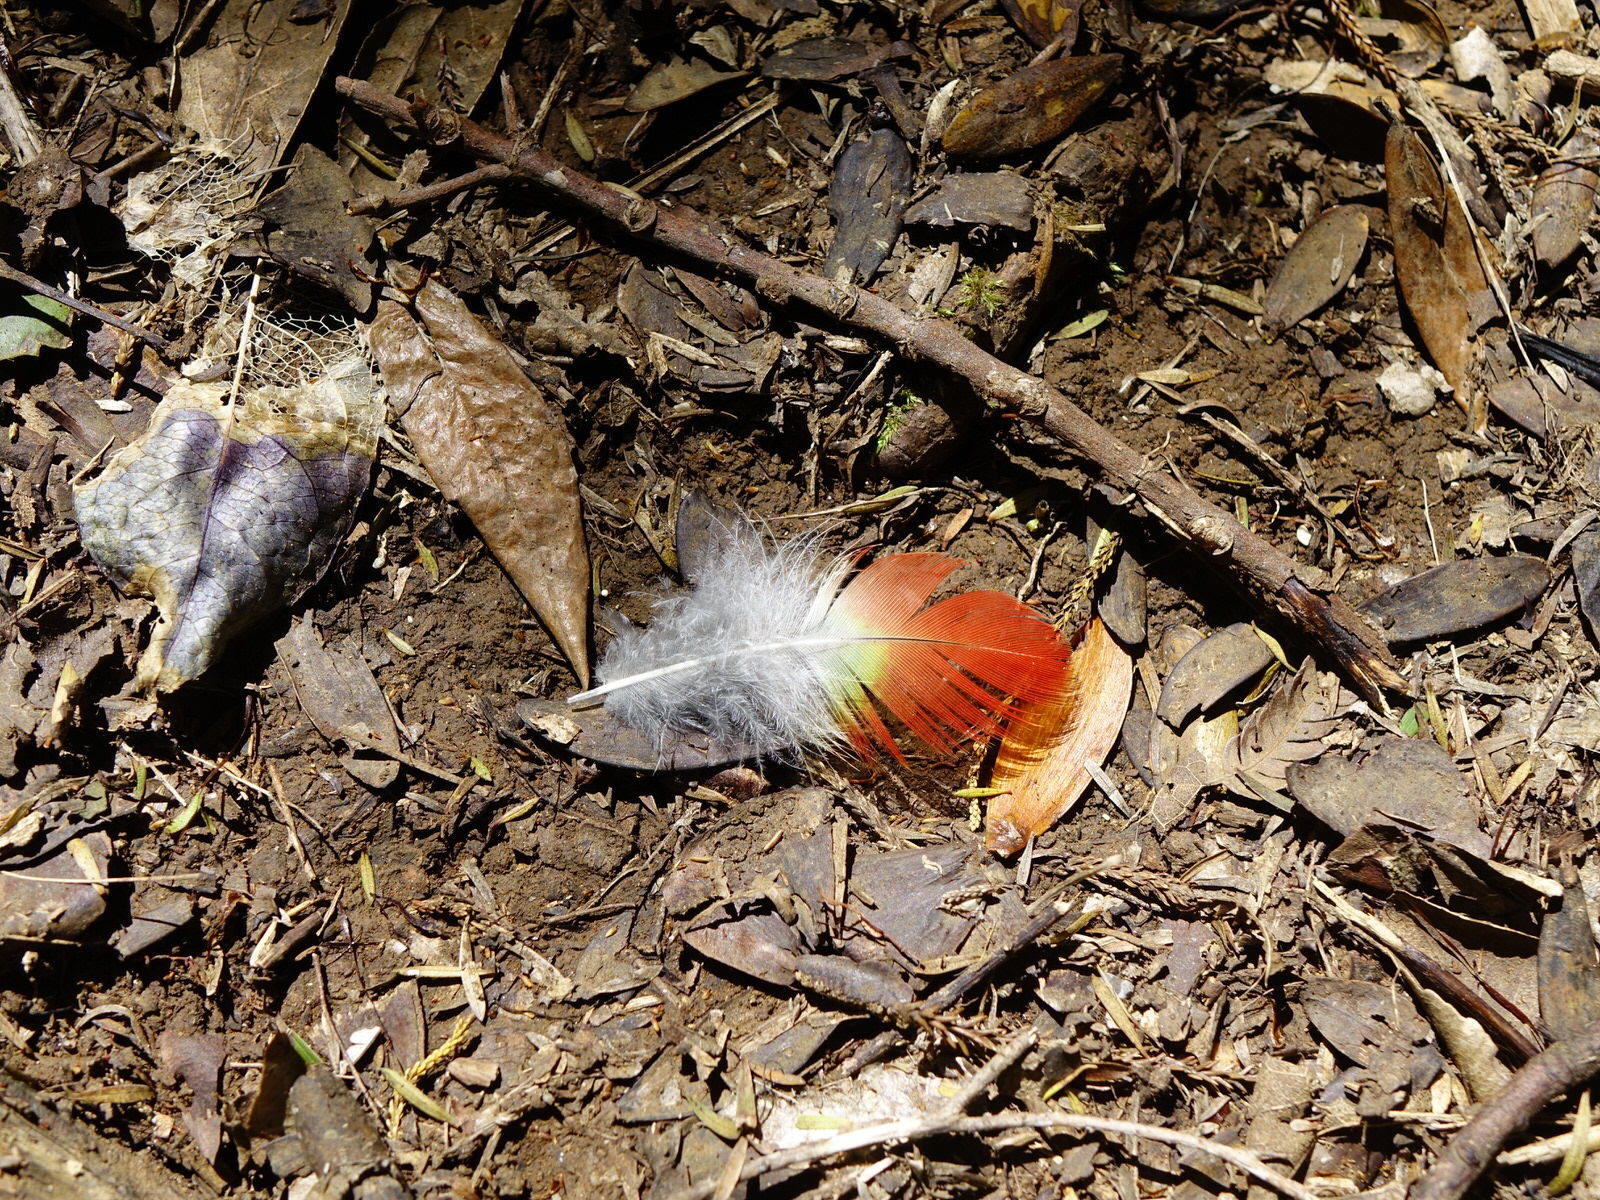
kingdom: Animalia
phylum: Chordata
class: Aves
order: Psittaciformes
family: Psittacidae
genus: Platycercus
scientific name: Platycercus eximius
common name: Eastern rosella
